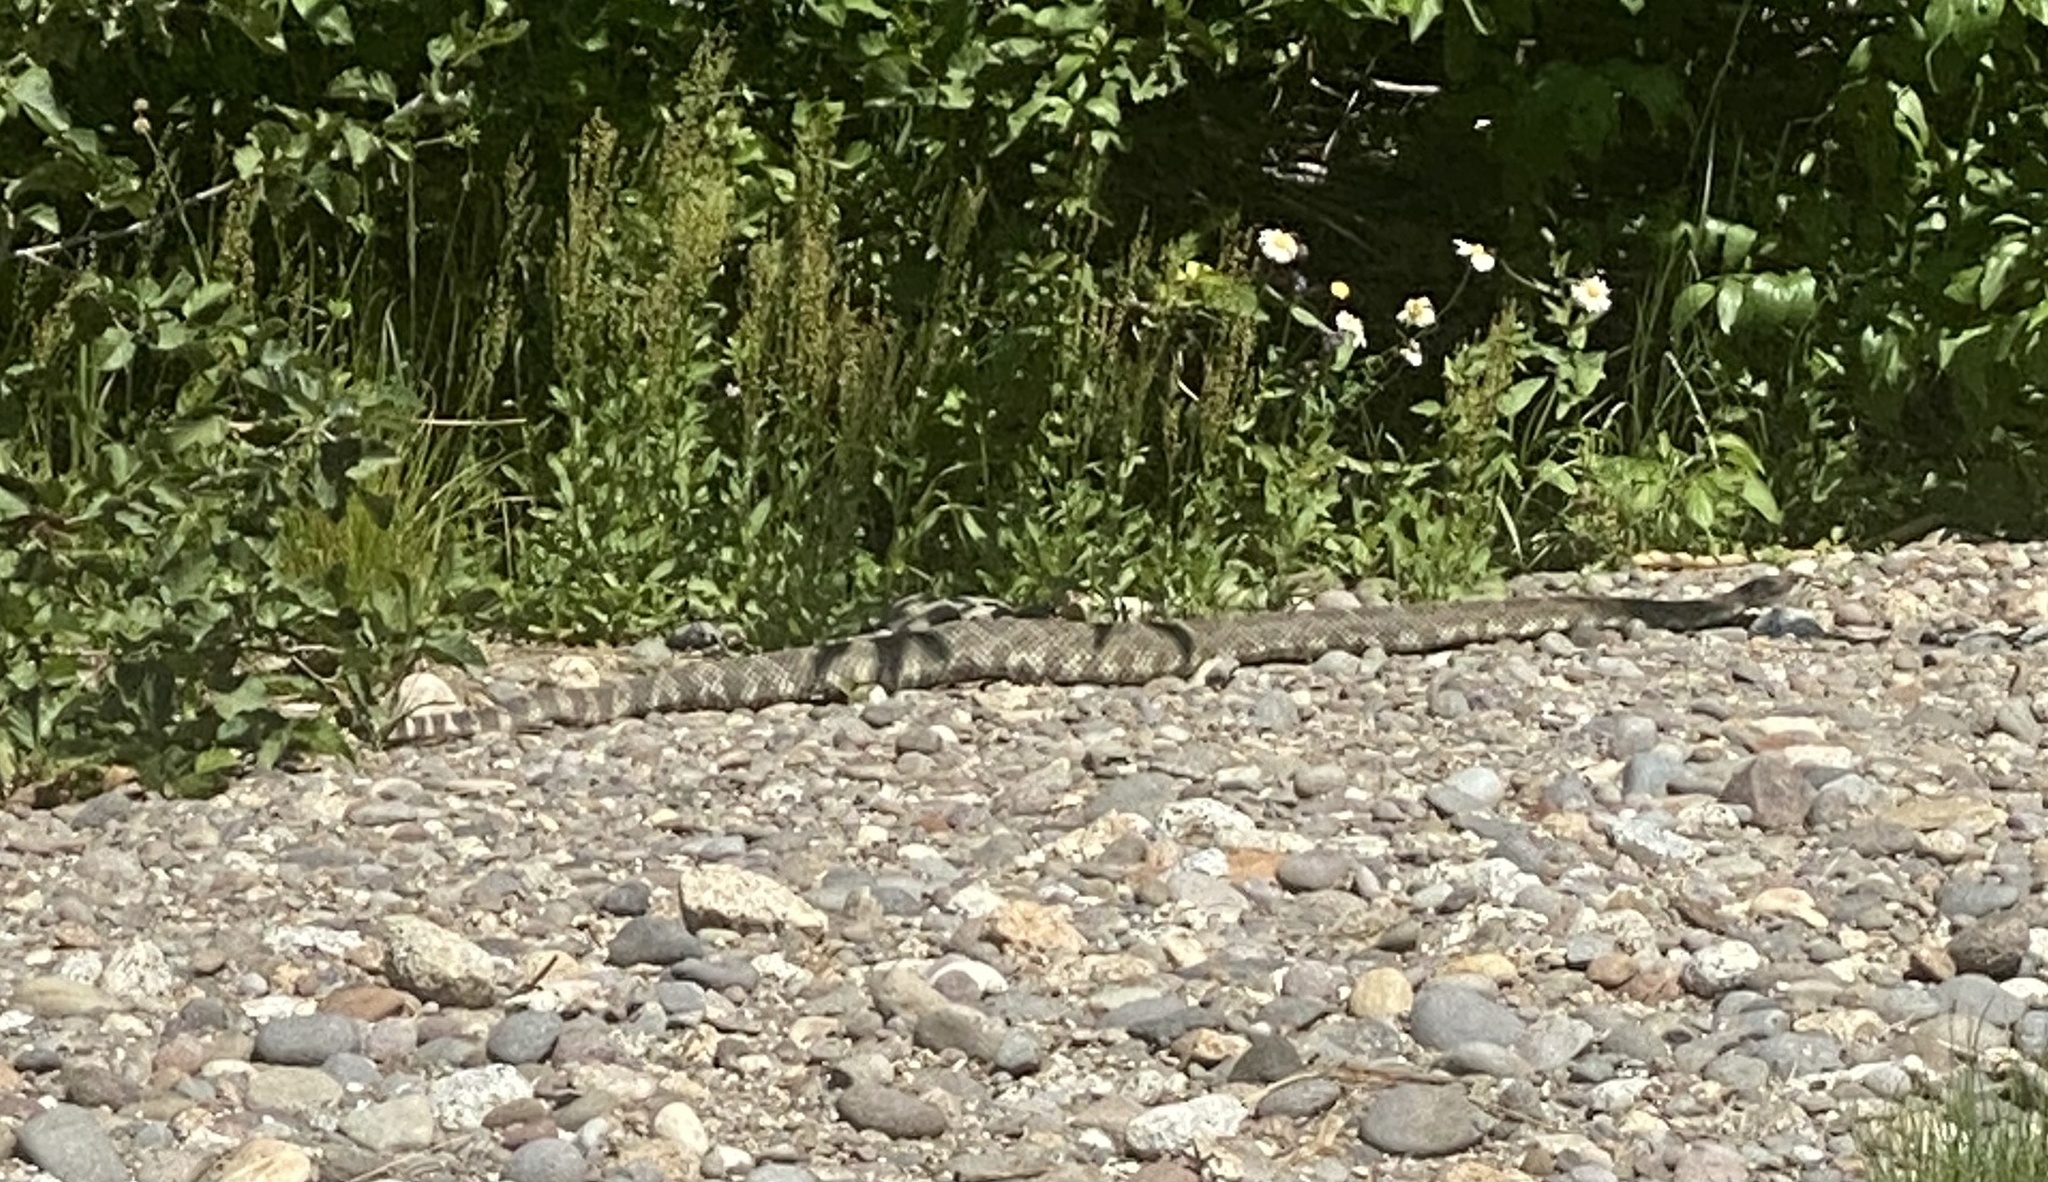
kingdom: Animalia
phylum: Chordata
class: Squamata
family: Viperidae
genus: Crotalus
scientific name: Crotalus oreganus
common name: Abyssus
